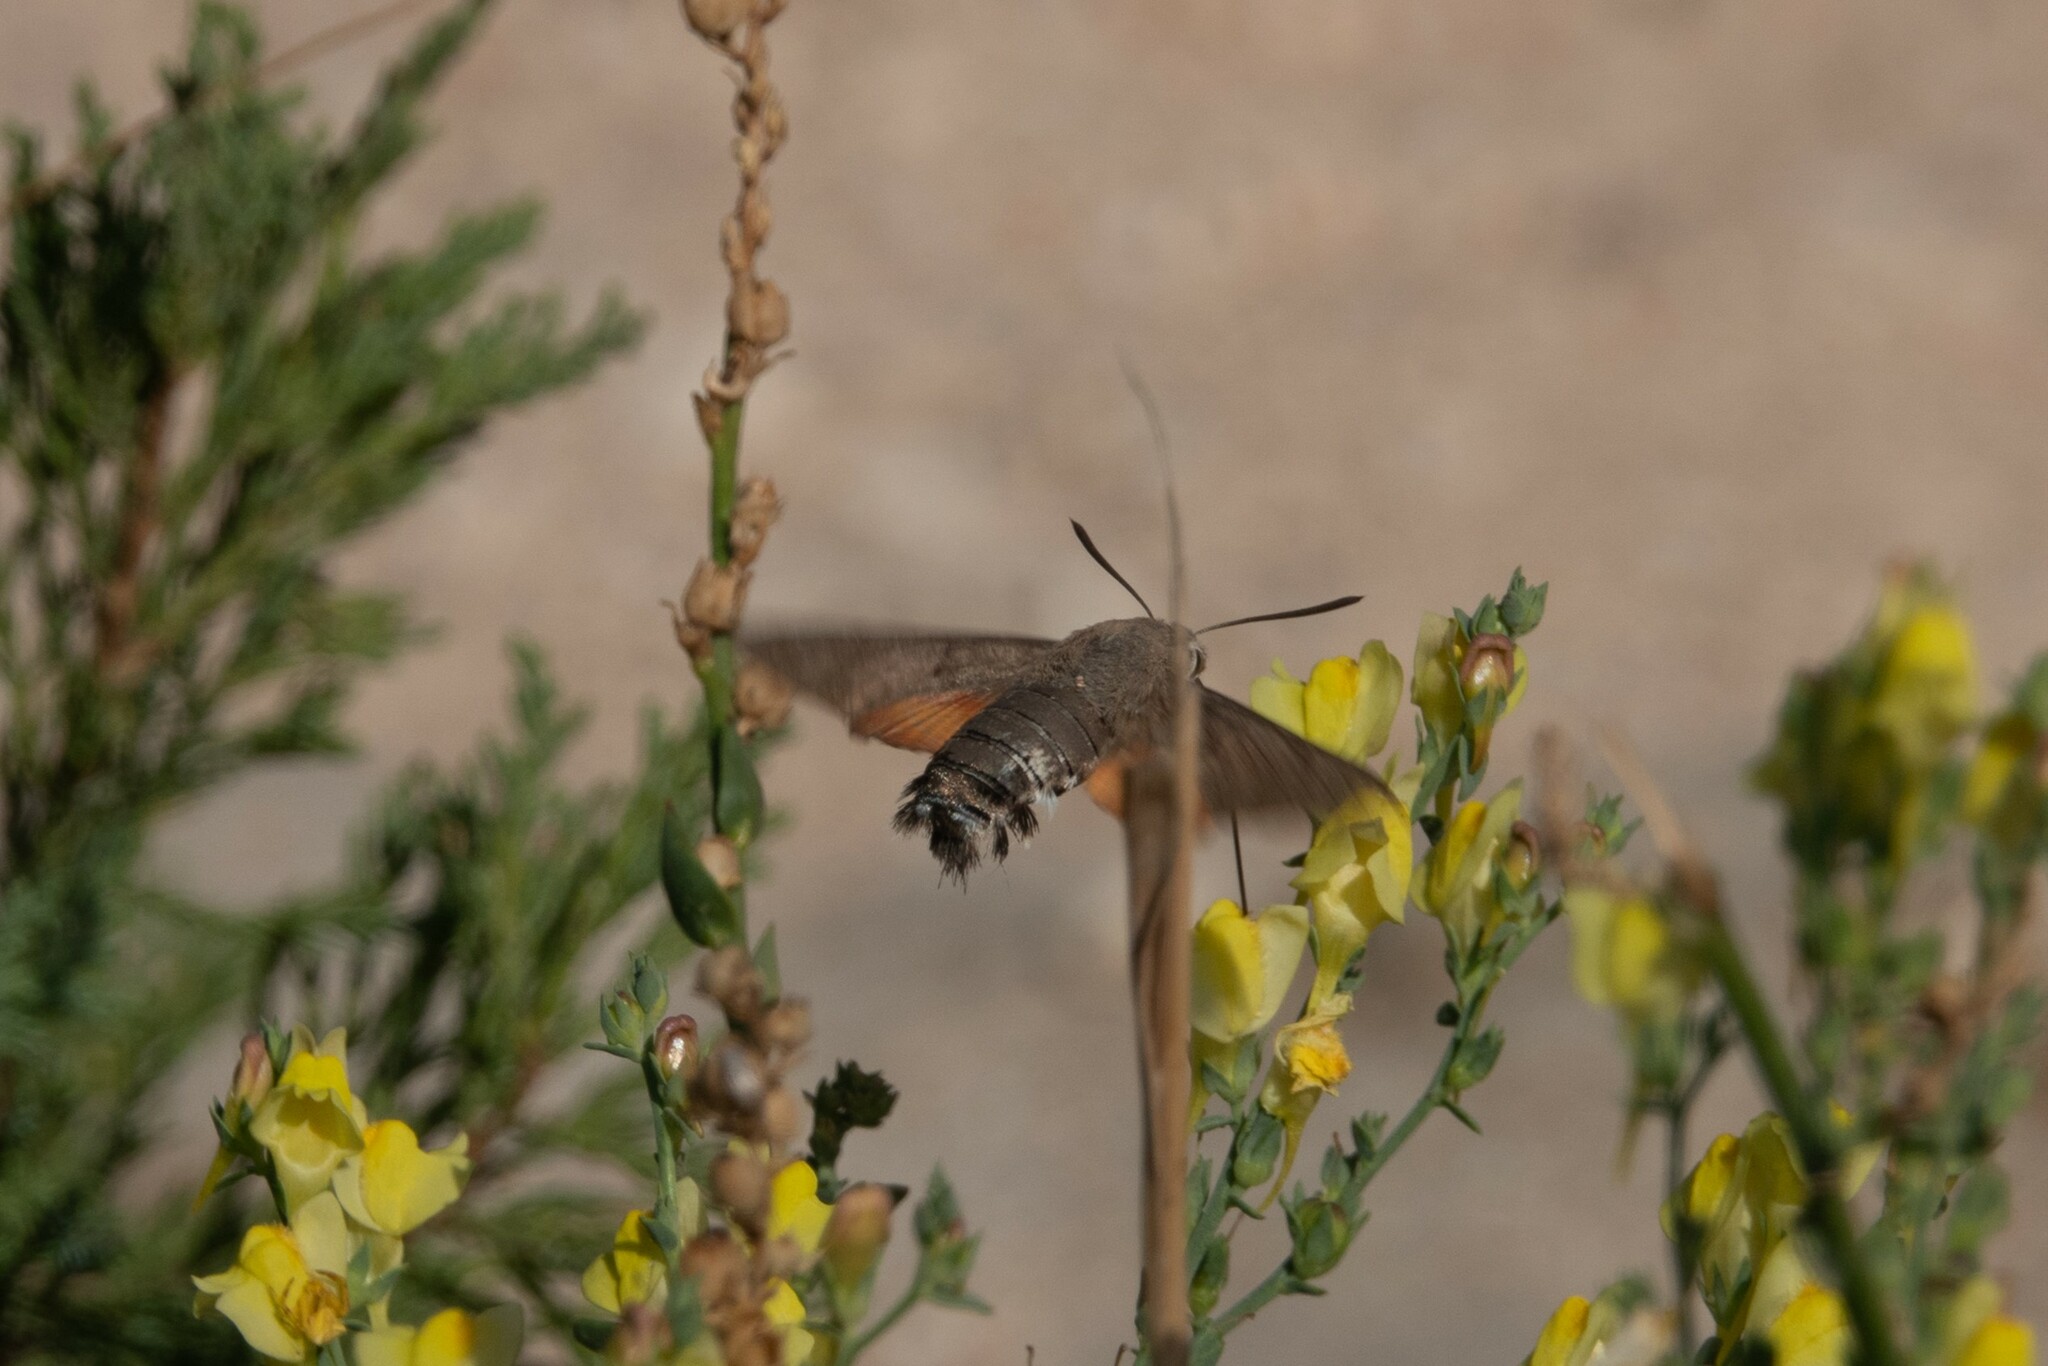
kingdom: Animalia
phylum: Arthropoda
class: Insecta
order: Lepidoptera
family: Sphingidae
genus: Macroglossum
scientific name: Macroglossum stellatarum
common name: Humming-bird hawk-moth
